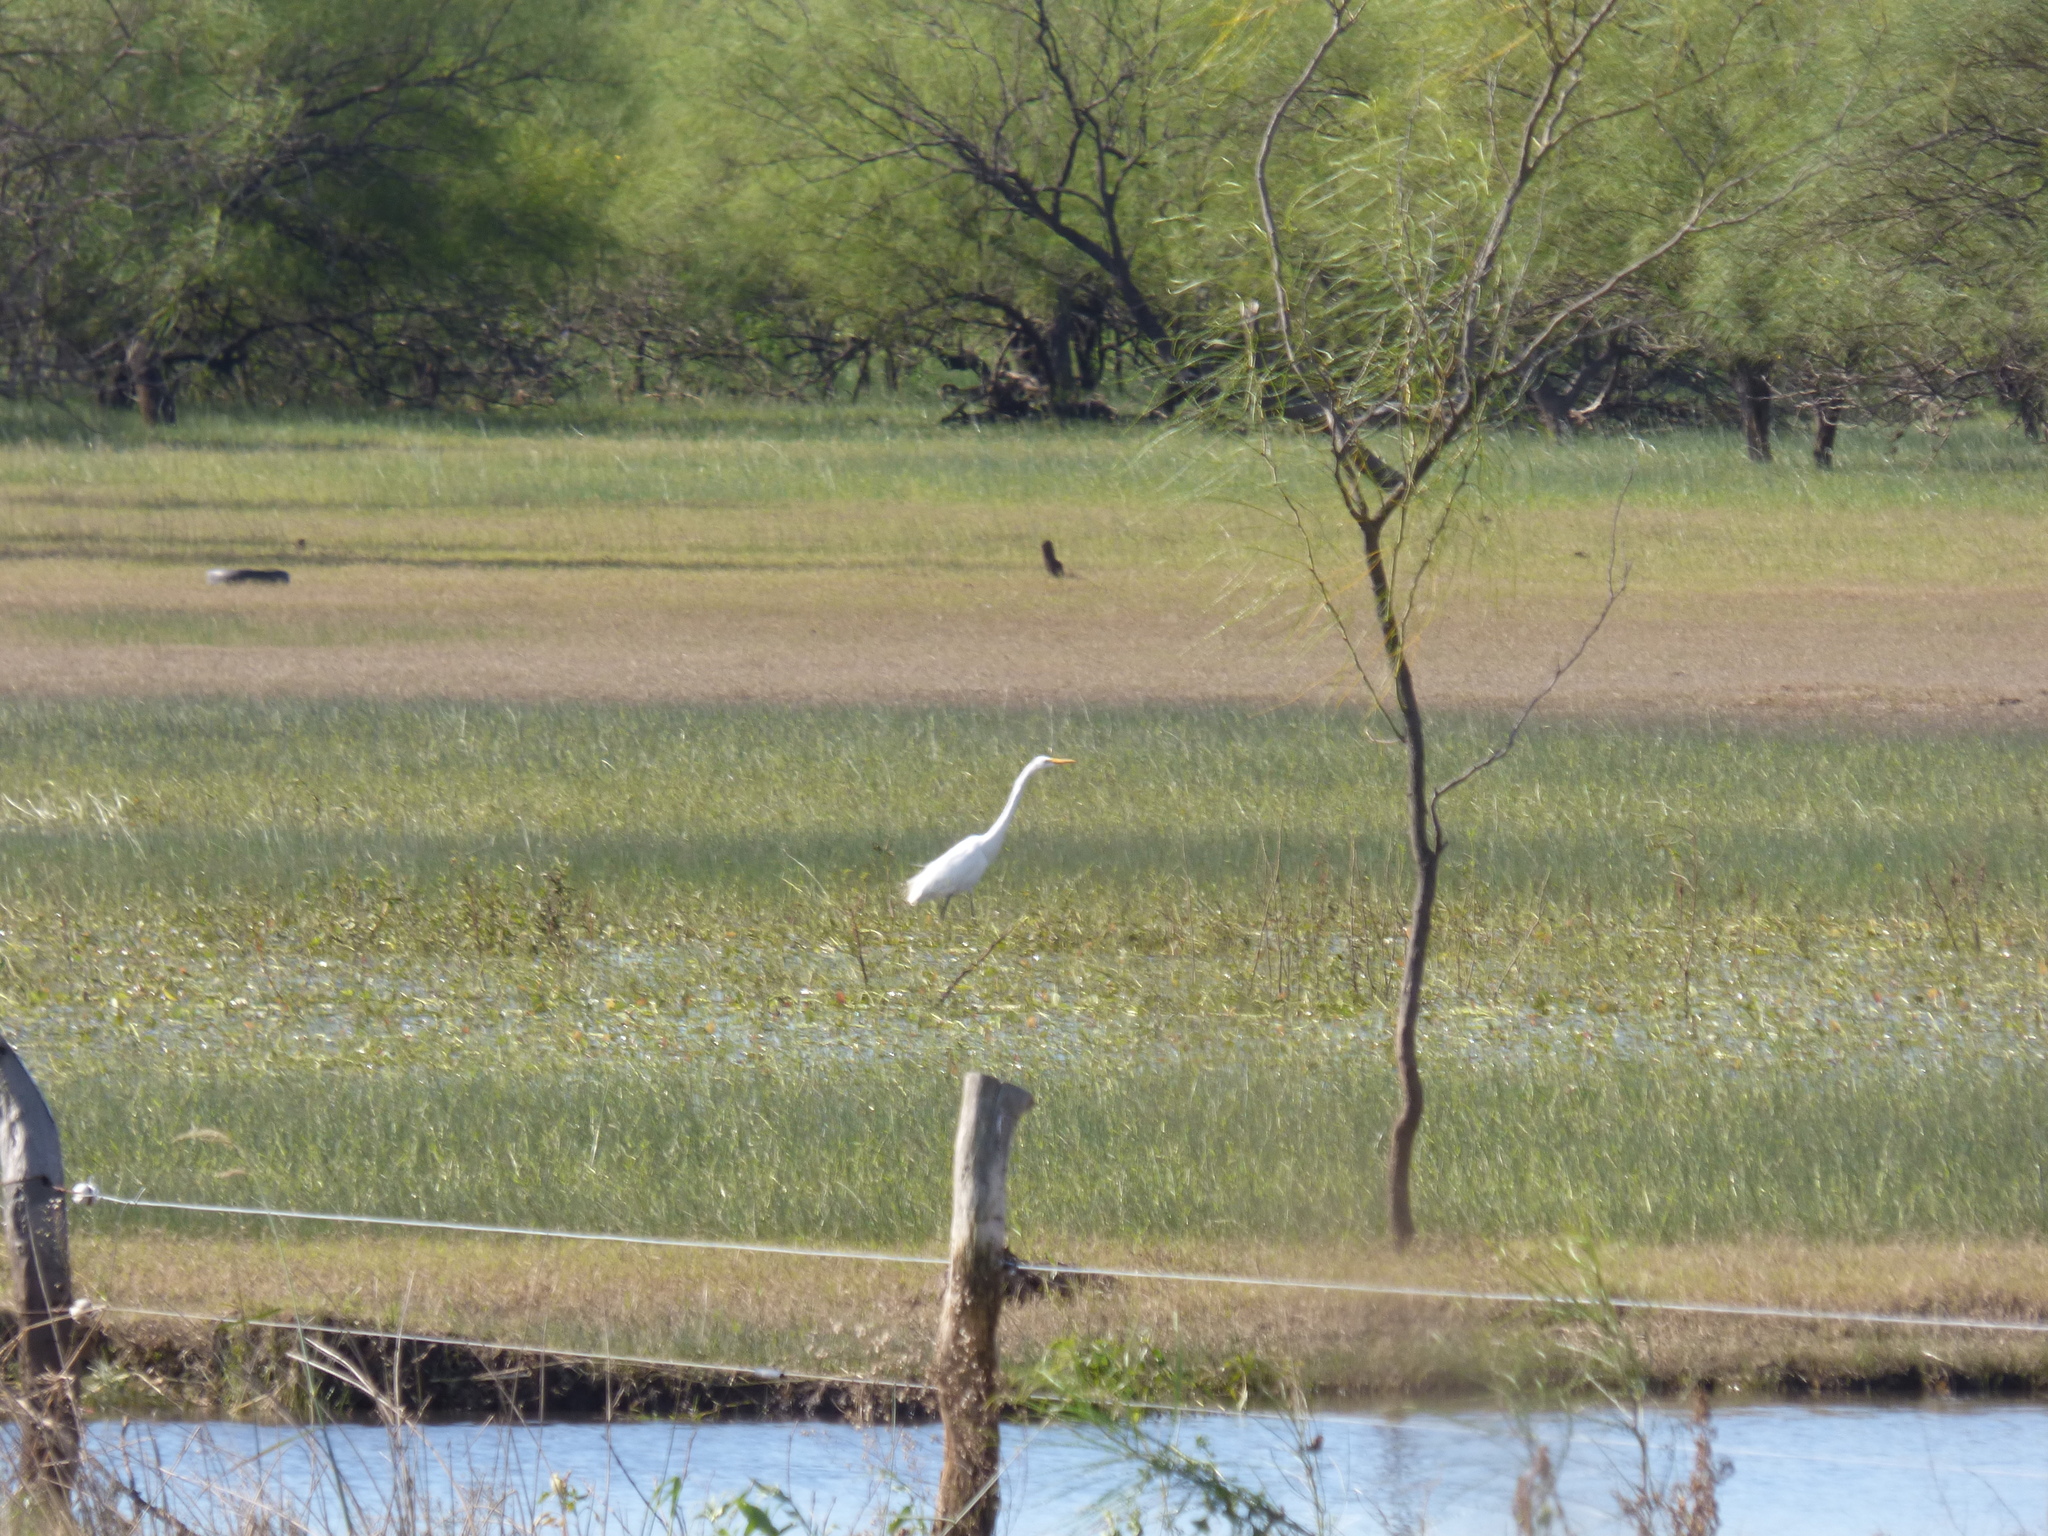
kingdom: Animalia
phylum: Chordata
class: Aves
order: Pelecaniformes
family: Ardeidae
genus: Ardea
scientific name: Ardea alba
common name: Great egret
